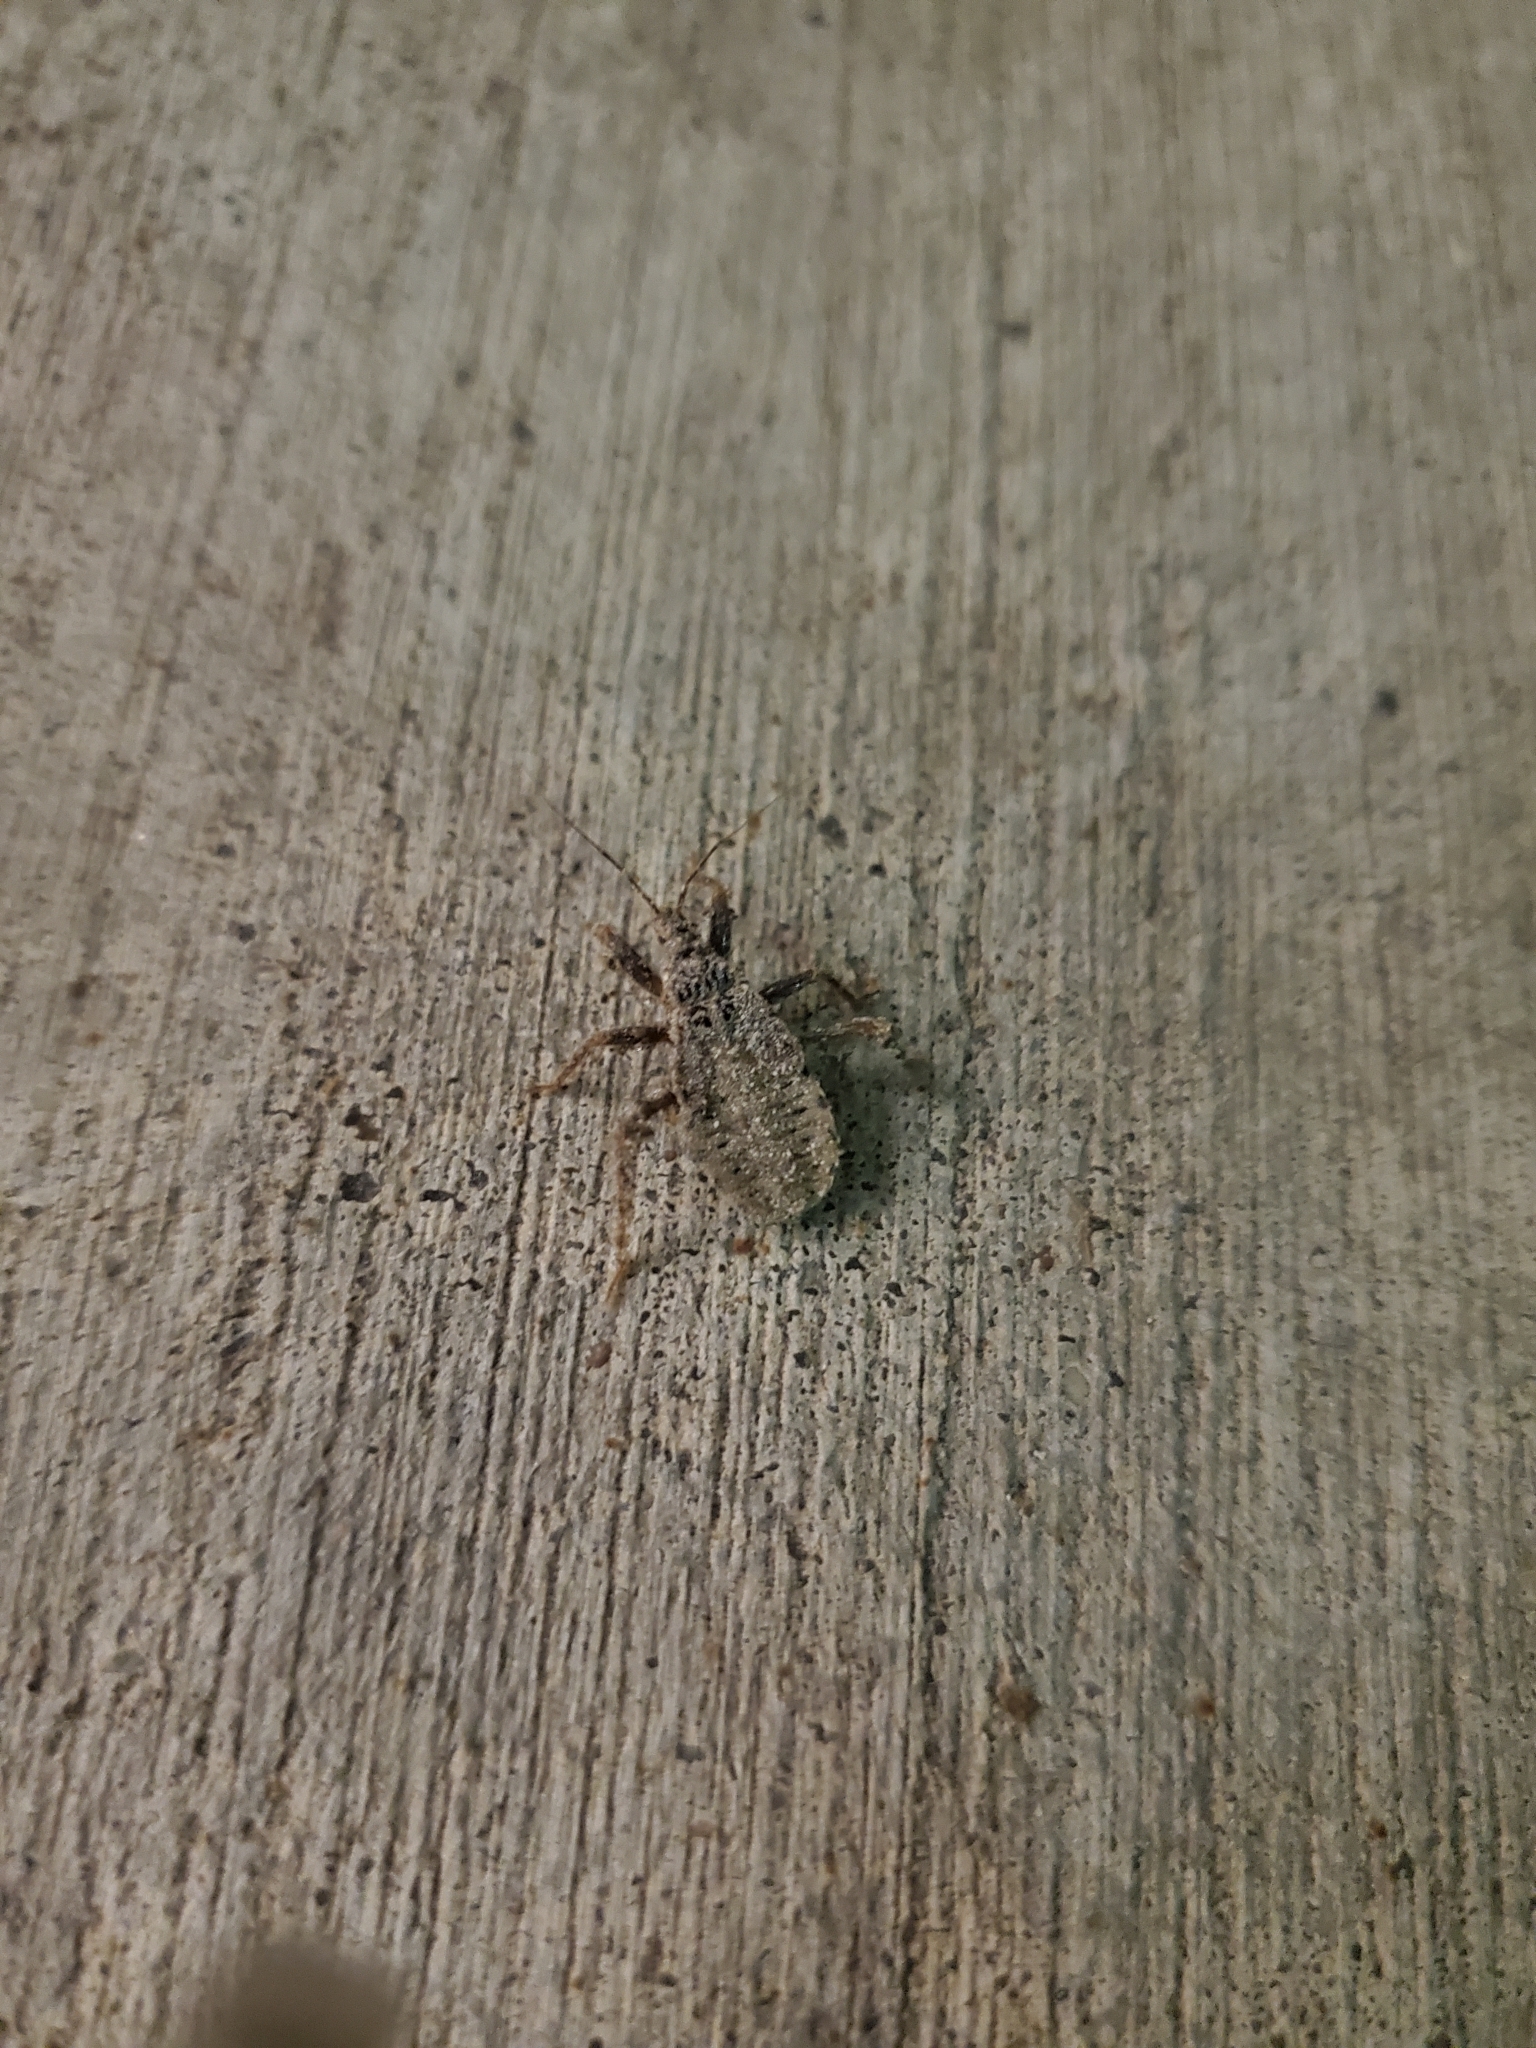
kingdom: Animalia
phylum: Arthropoda
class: Insecta
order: Hemiptera
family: Reduviidae
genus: Reduvius
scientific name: Reduvius personatus
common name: Masked hunter
